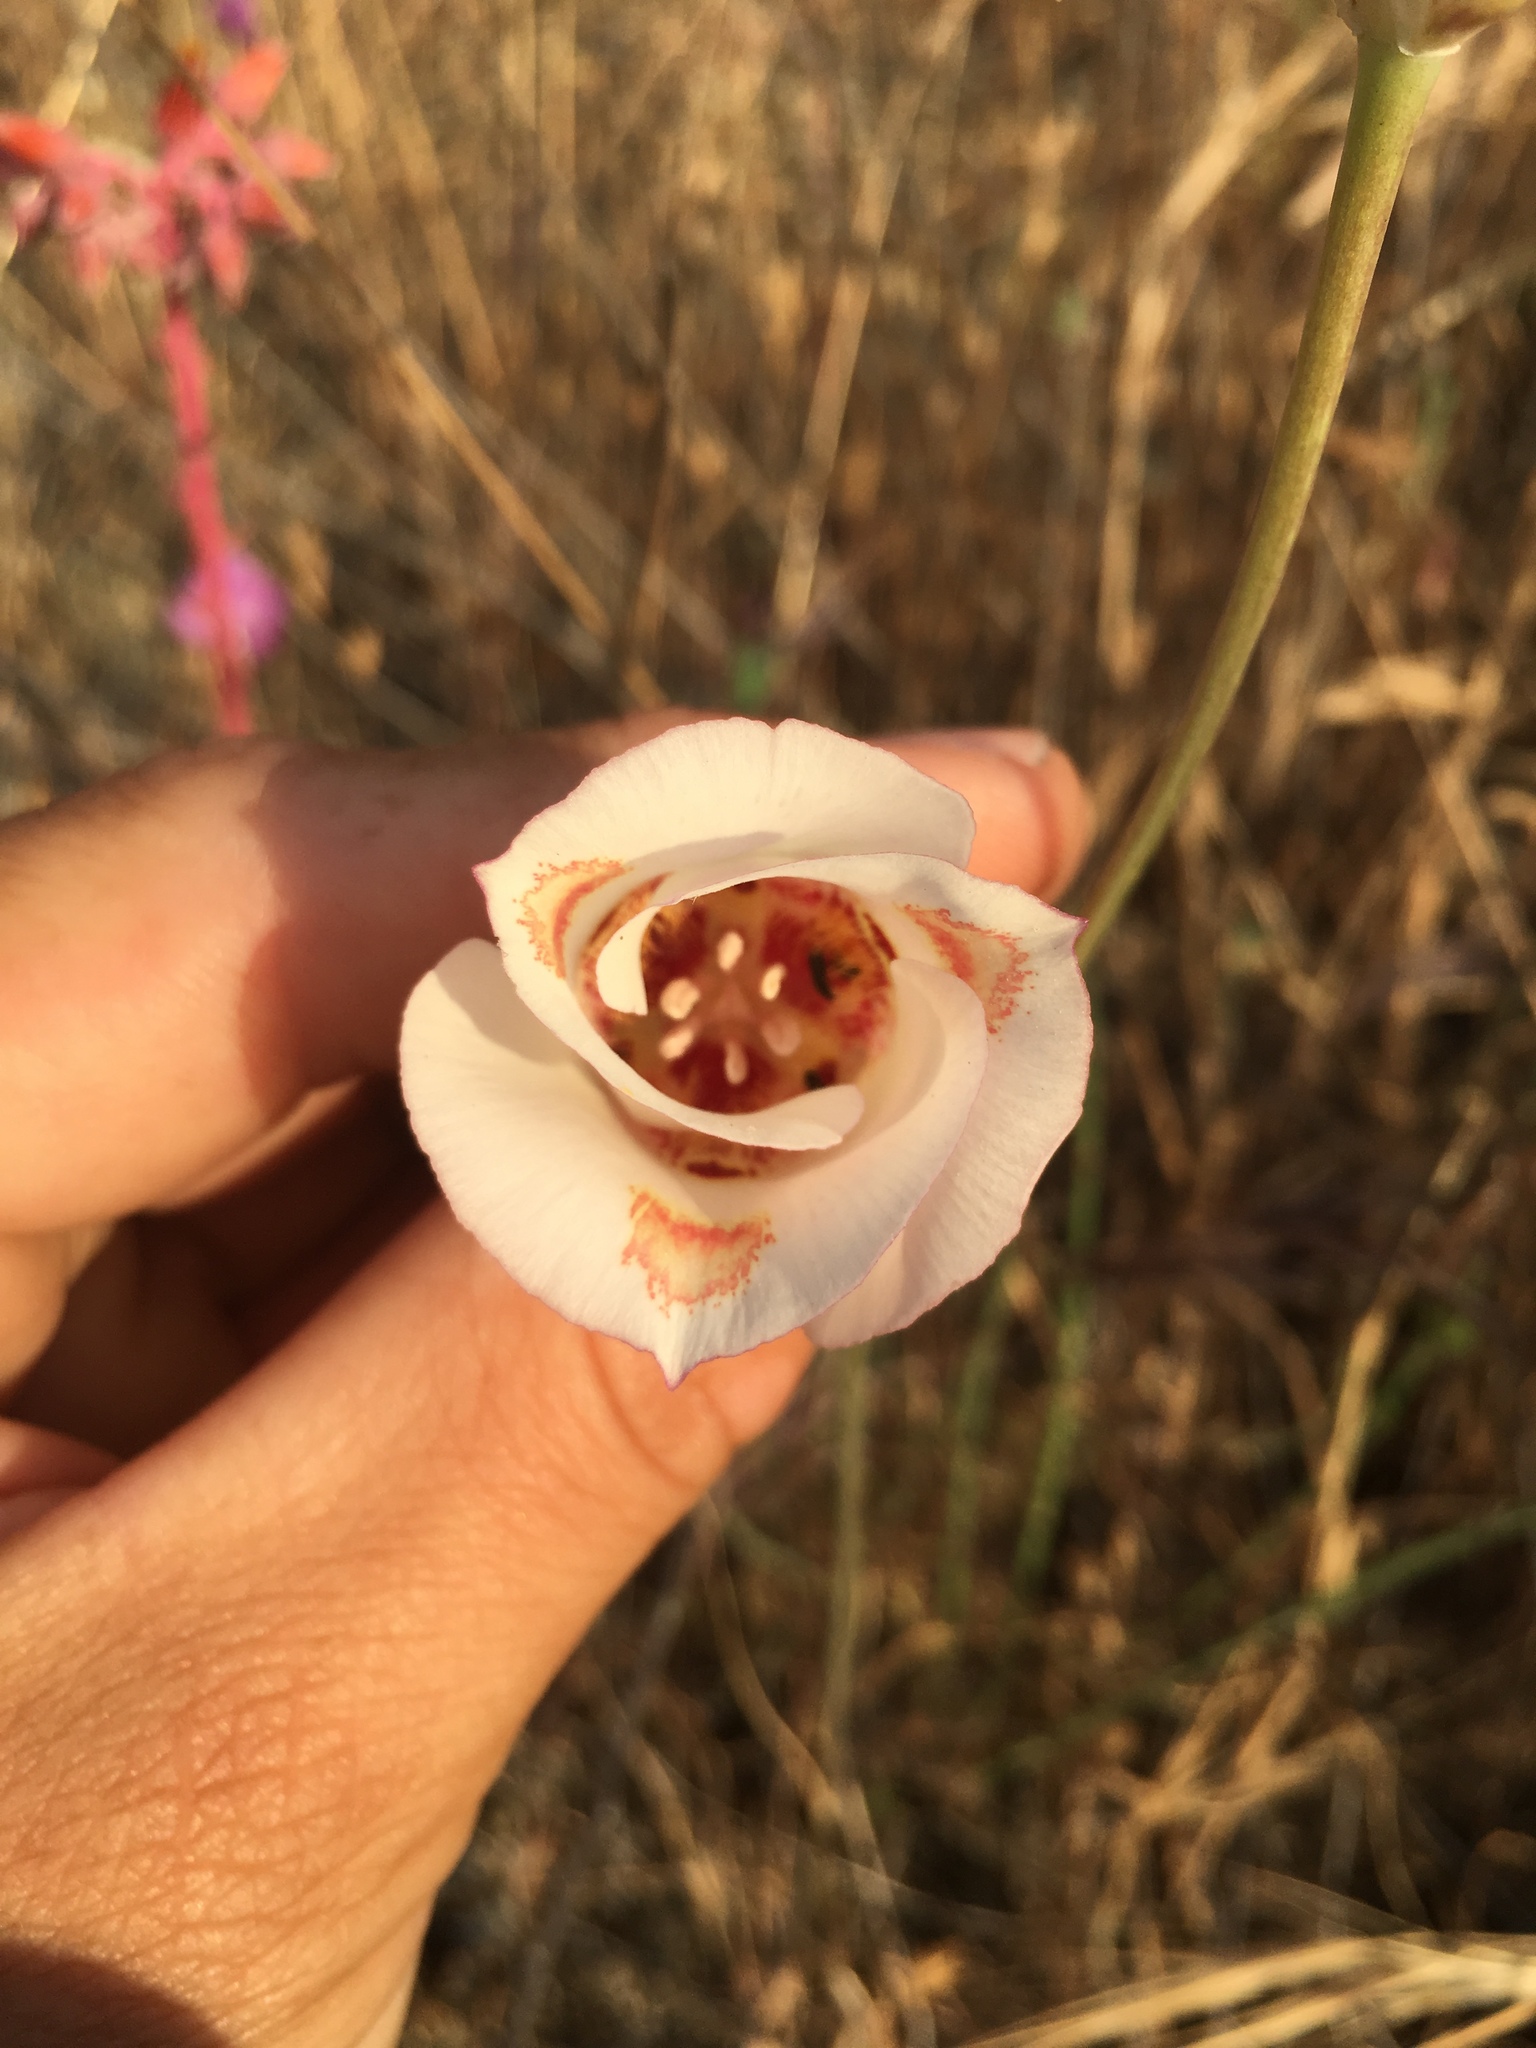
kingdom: Plantae
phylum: Tracheophyta
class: Liliopsida
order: Liliales
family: Liliaceae
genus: Calochortus
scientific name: Calochortus venustus
